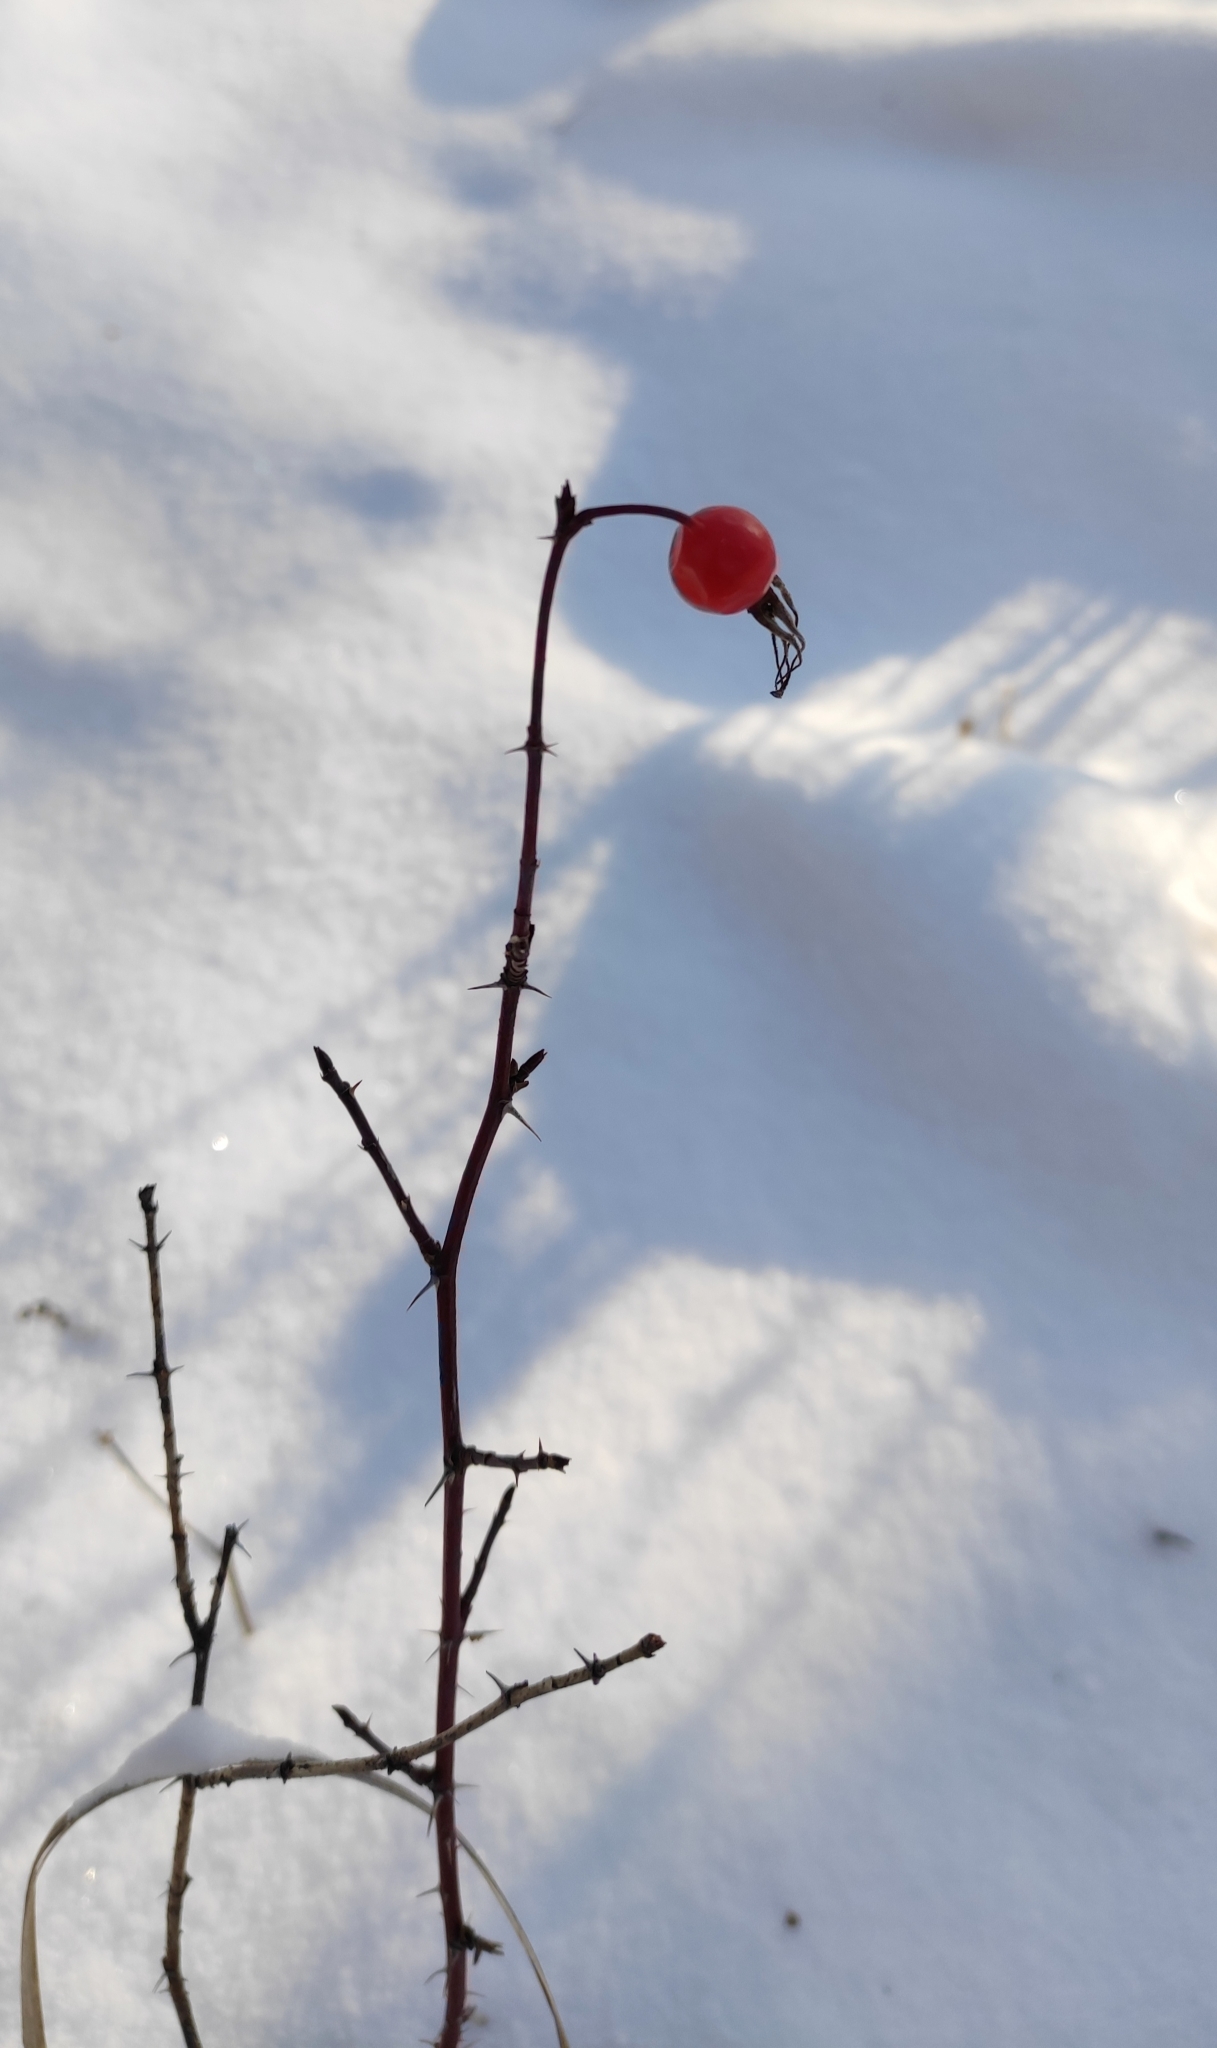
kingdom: Plantae
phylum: Tracheophyta
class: Magnoliopsida
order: Rosales
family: Rosaceae
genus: Rosa
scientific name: Rosa majalis
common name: Cinnamon rose
